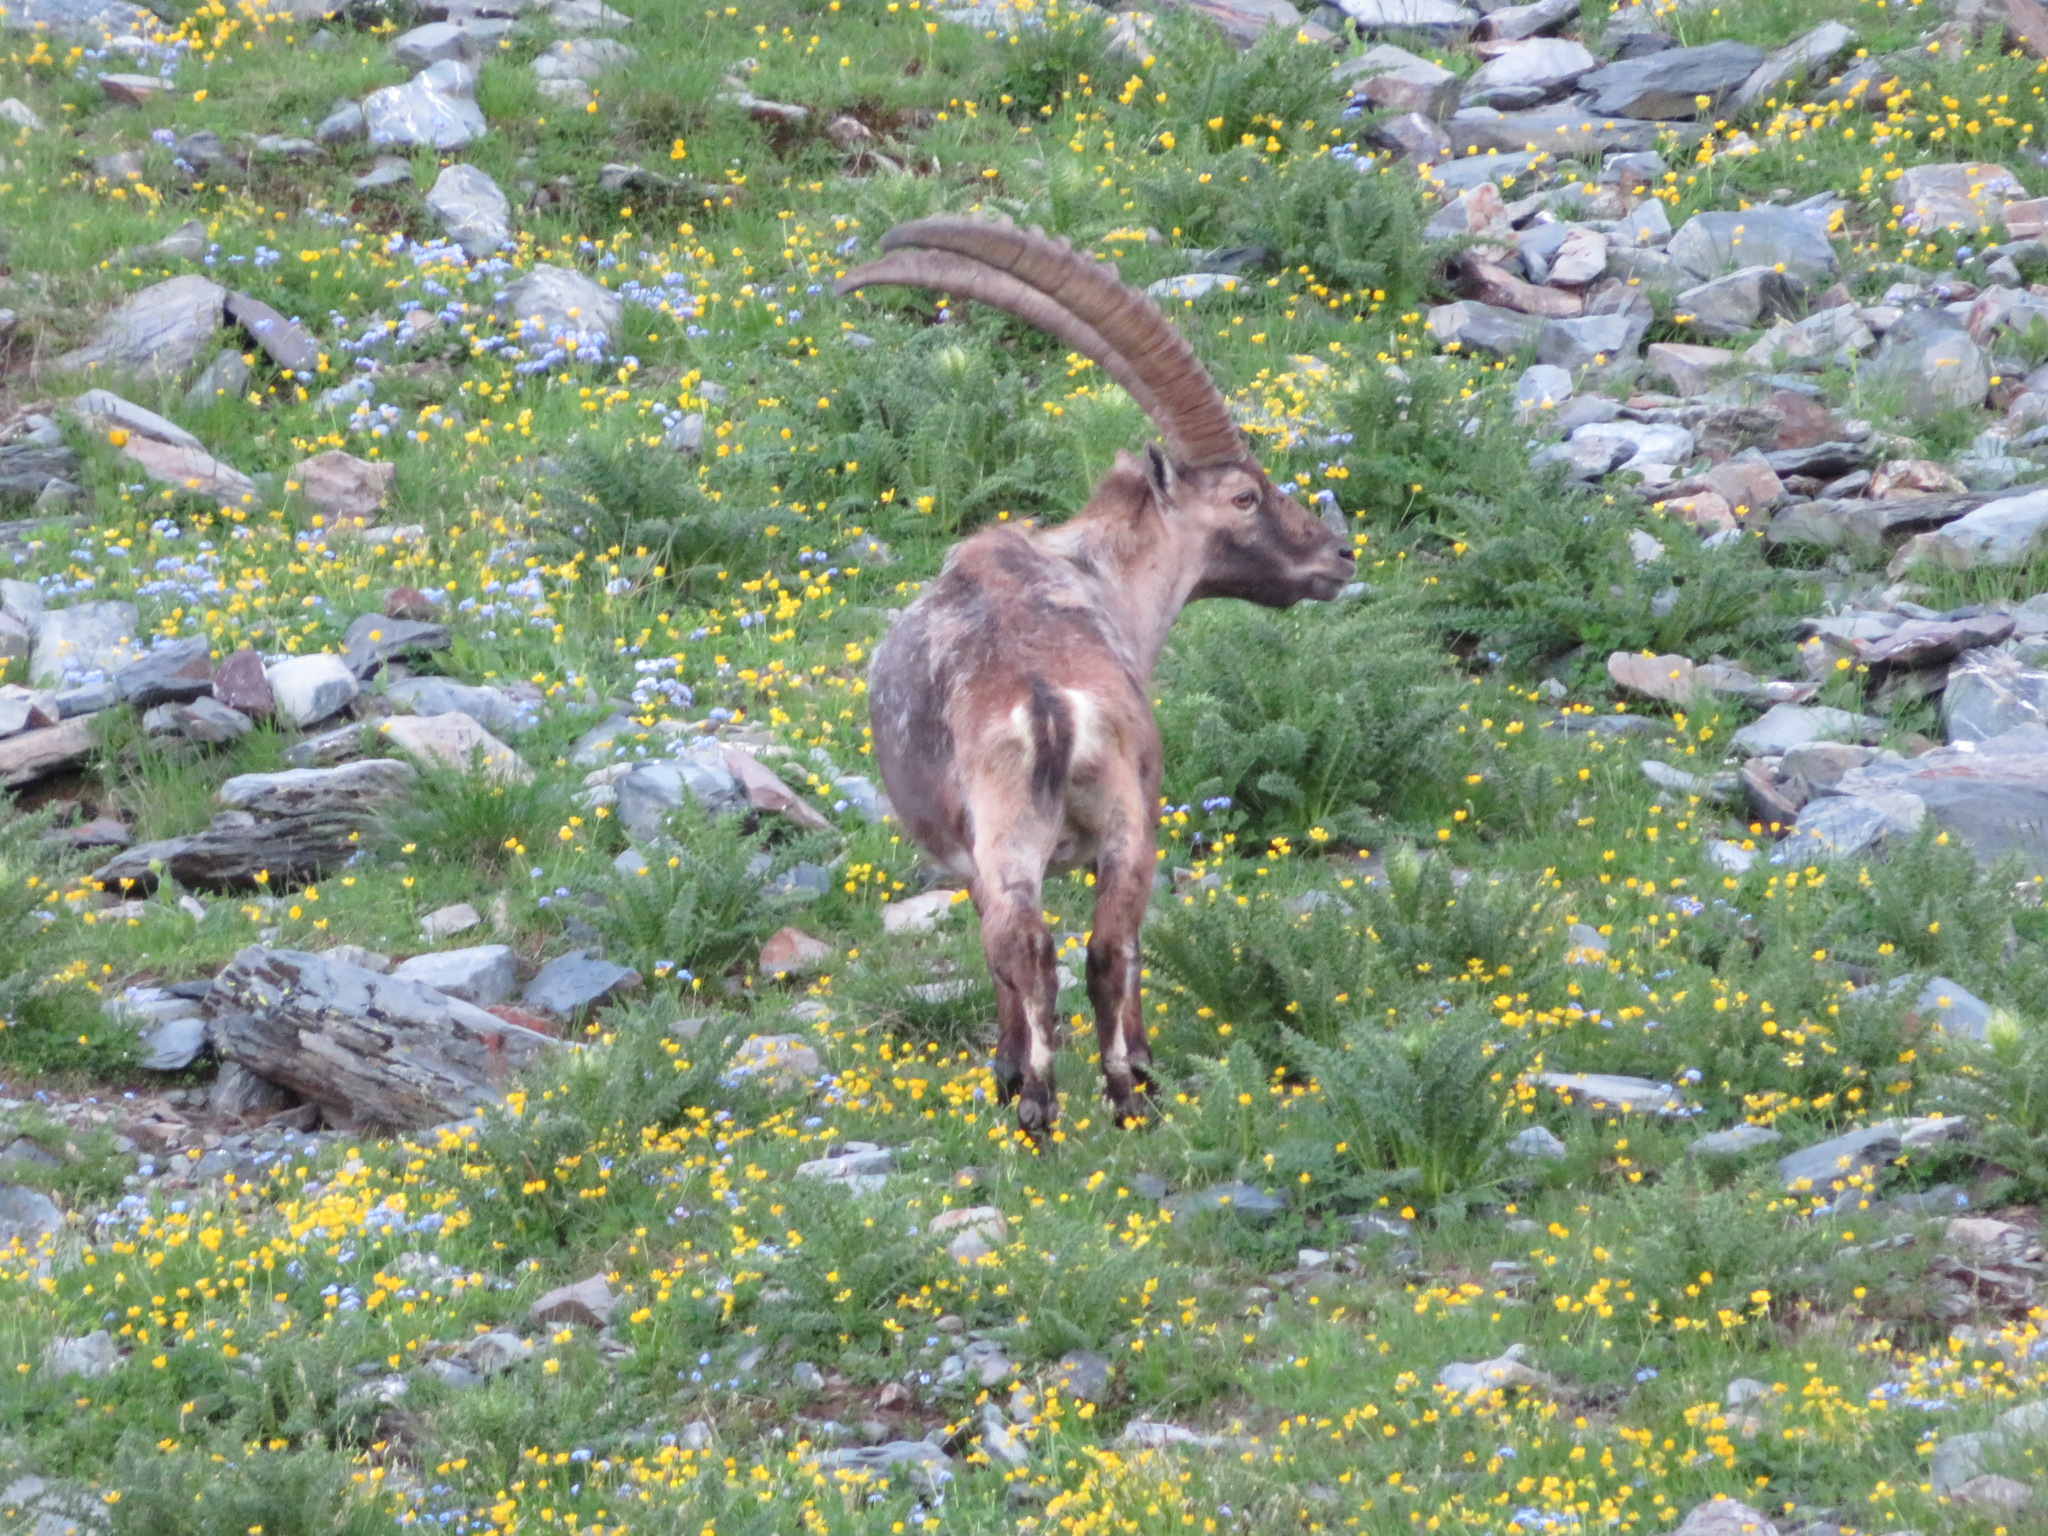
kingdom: Animalia
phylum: Chordata
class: Mammalia
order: Artiodactyla
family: Bovidae
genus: Capra
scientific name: Capra ibex
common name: Alpine ibex
